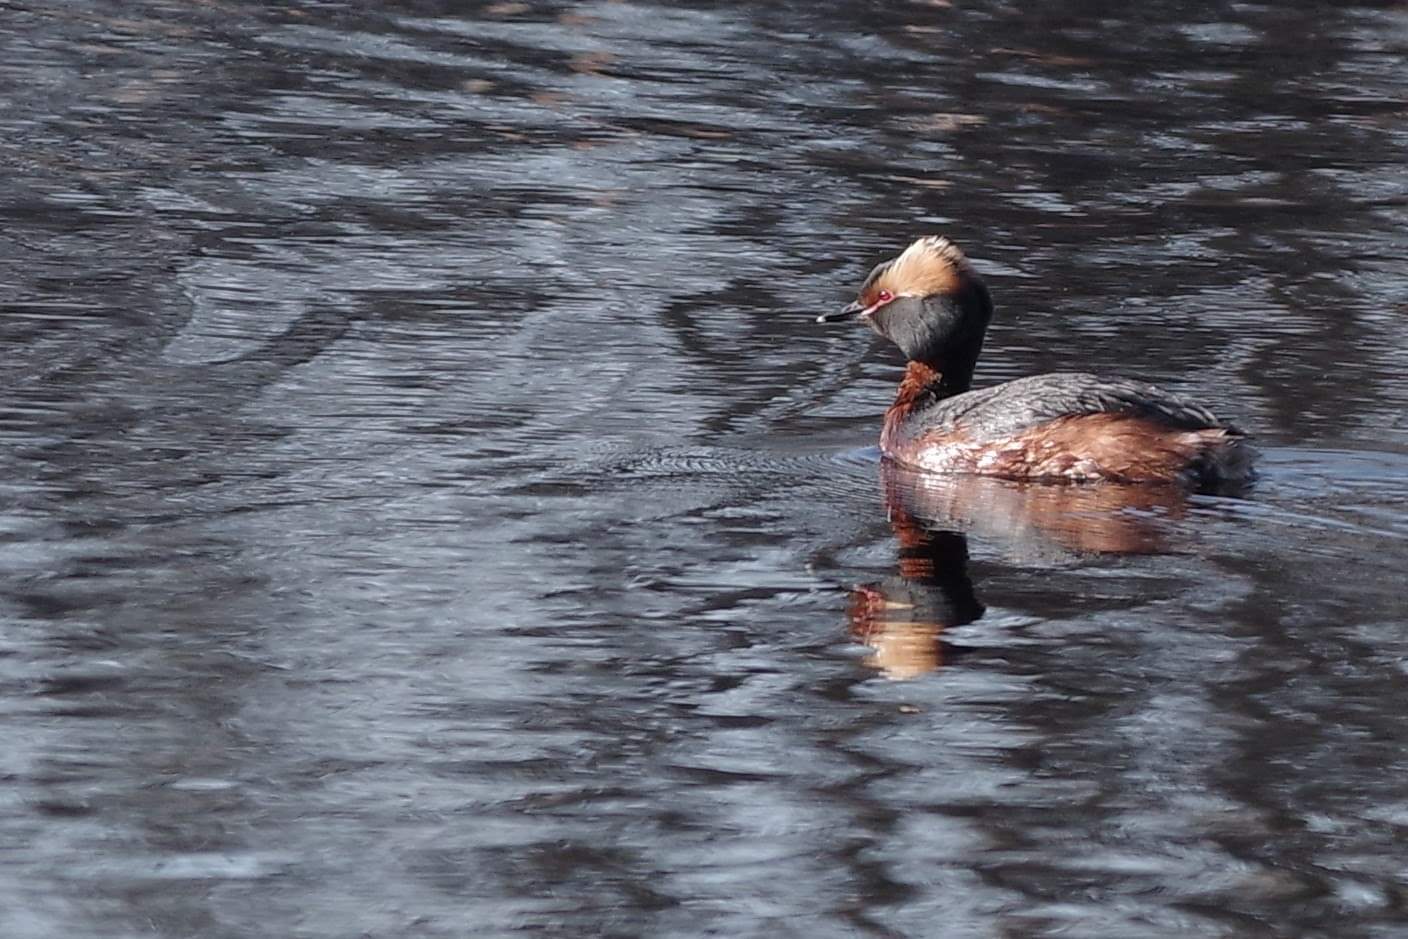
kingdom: Animalia
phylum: Chordata
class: Aves
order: Podicipediformes
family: Podicipedidae
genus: Podiceps
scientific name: Podiceps auritus
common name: Horned grebe
